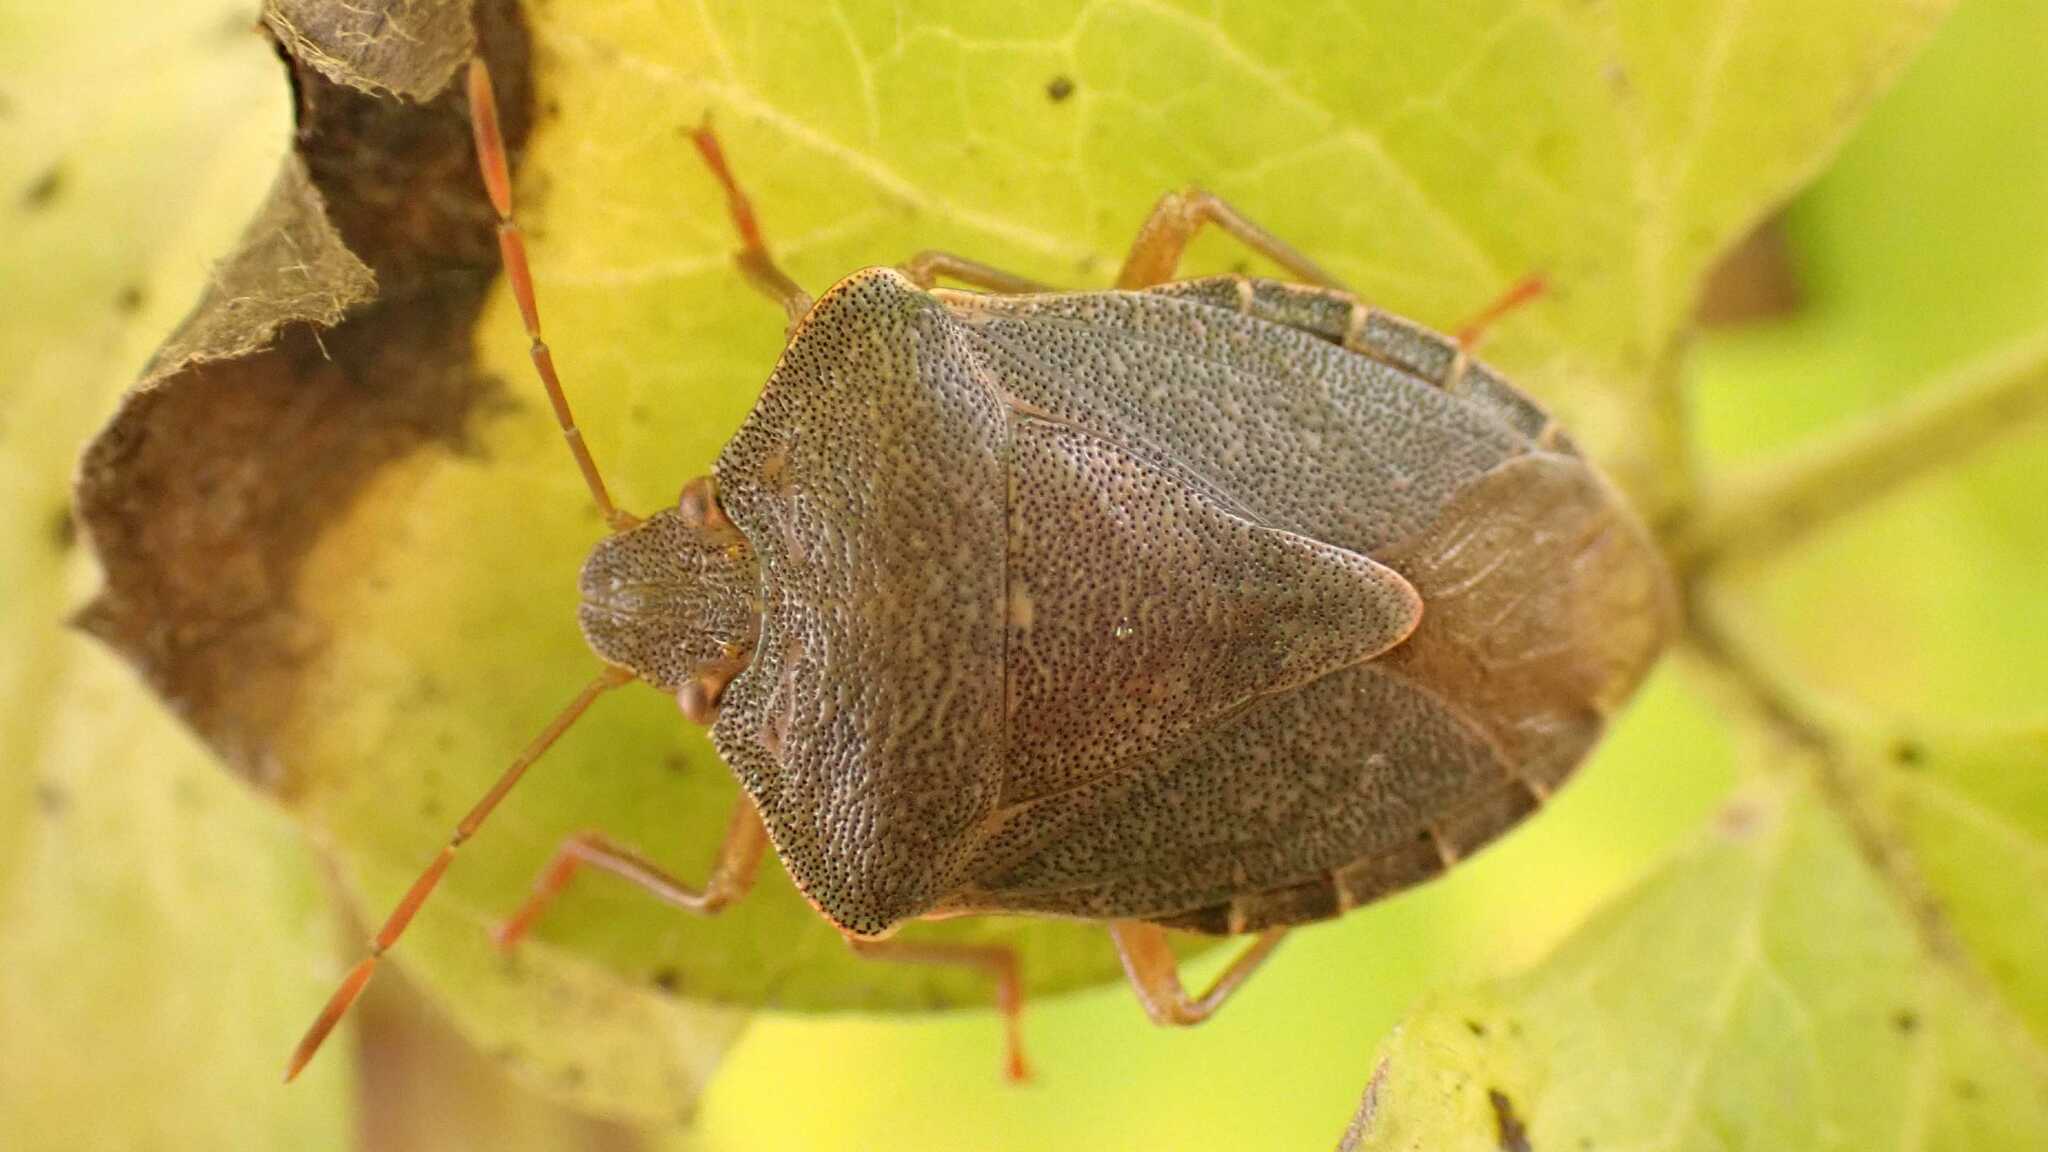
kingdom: Animalia
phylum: Arthropoda
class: Insecta
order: Hemiptera
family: Pentatomidae
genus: Palomena
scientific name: Palomena prasina
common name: Green shieldbug
